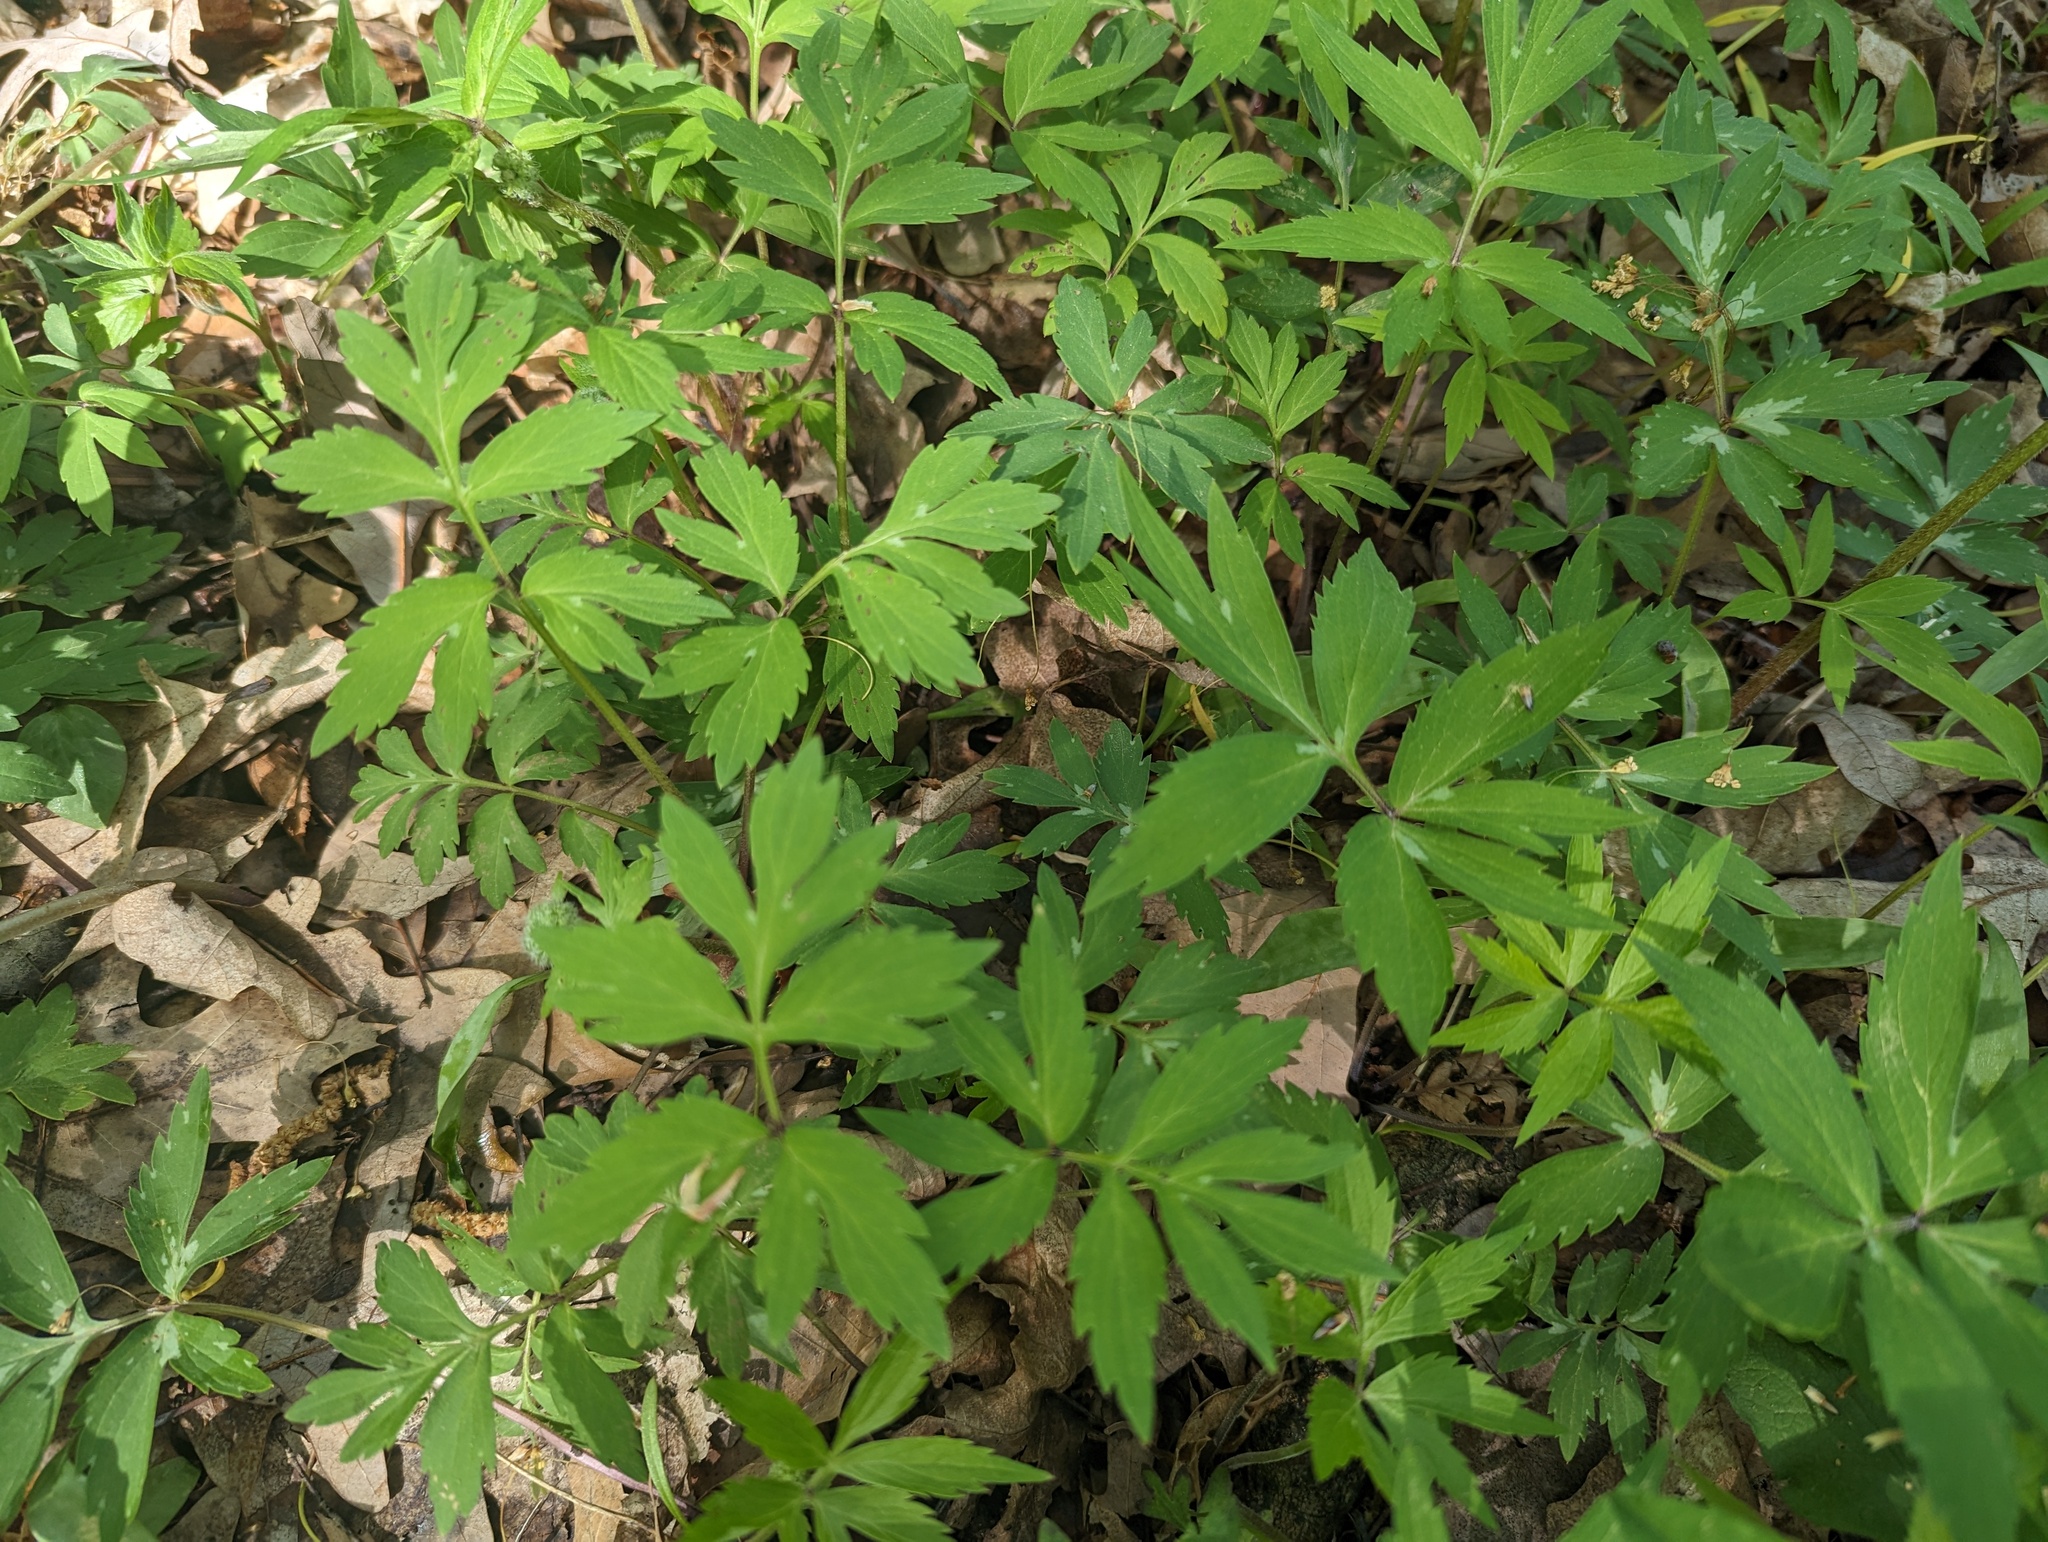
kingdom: Plantae
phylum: Tracheophyta
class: Magnoliopsida
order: Boraginales
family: Hydrophyllaceae
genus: Hydrophyllum
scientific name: Hydrophyllum virginianum
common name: Virginia waterleaf
